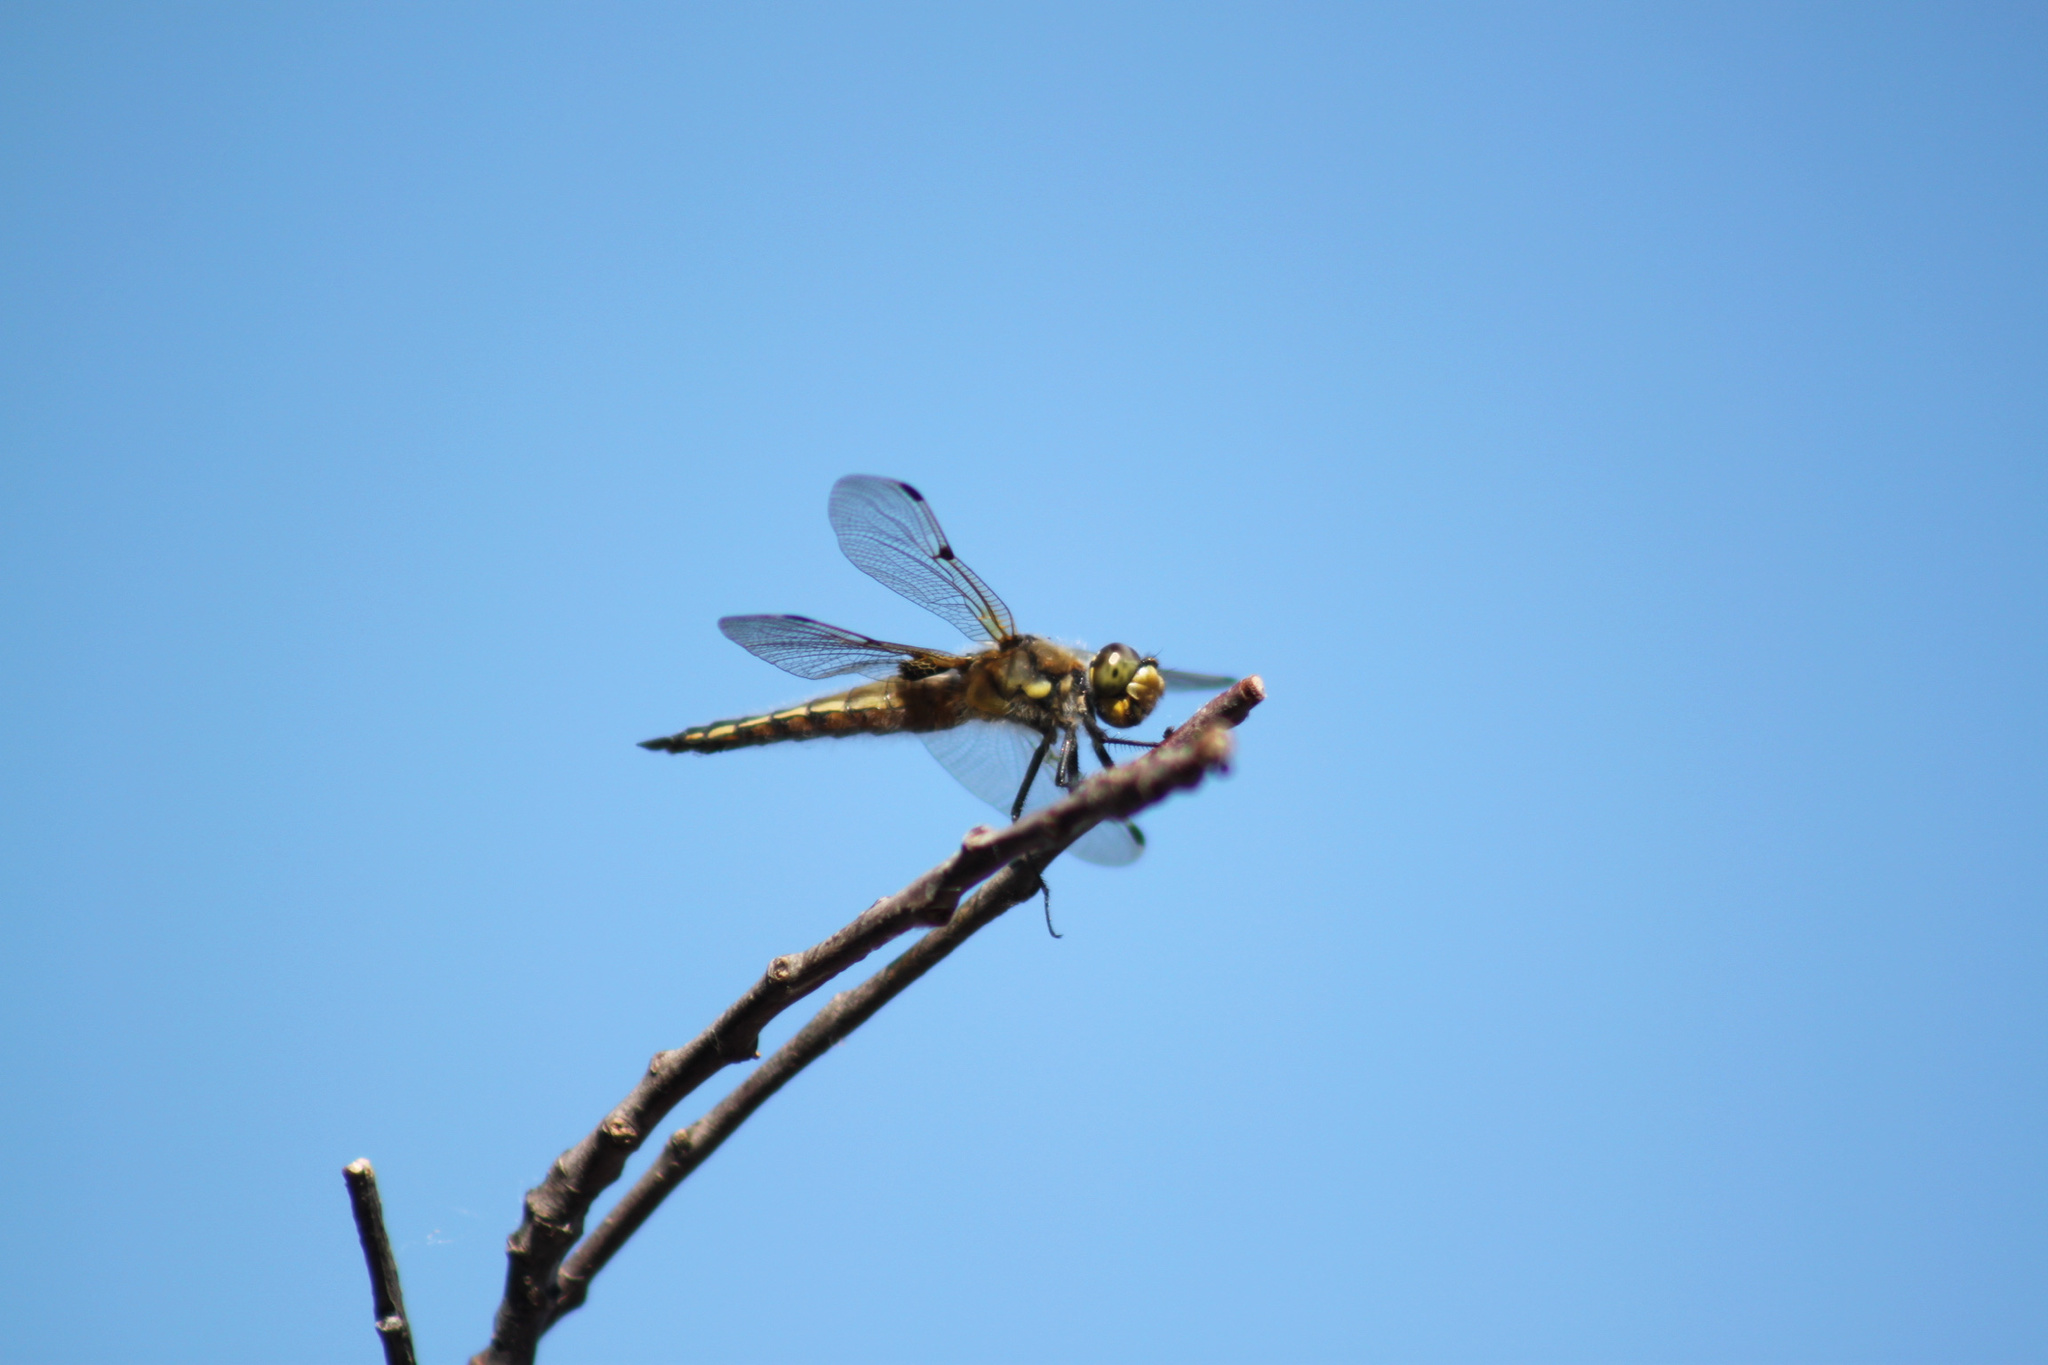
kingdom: Animalia
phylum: Arthropoda
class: Insecta
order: Odonata
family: Libellulidae
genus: Libellula
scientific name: Libellula quadrimaculata
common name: Four-spotted chaser
